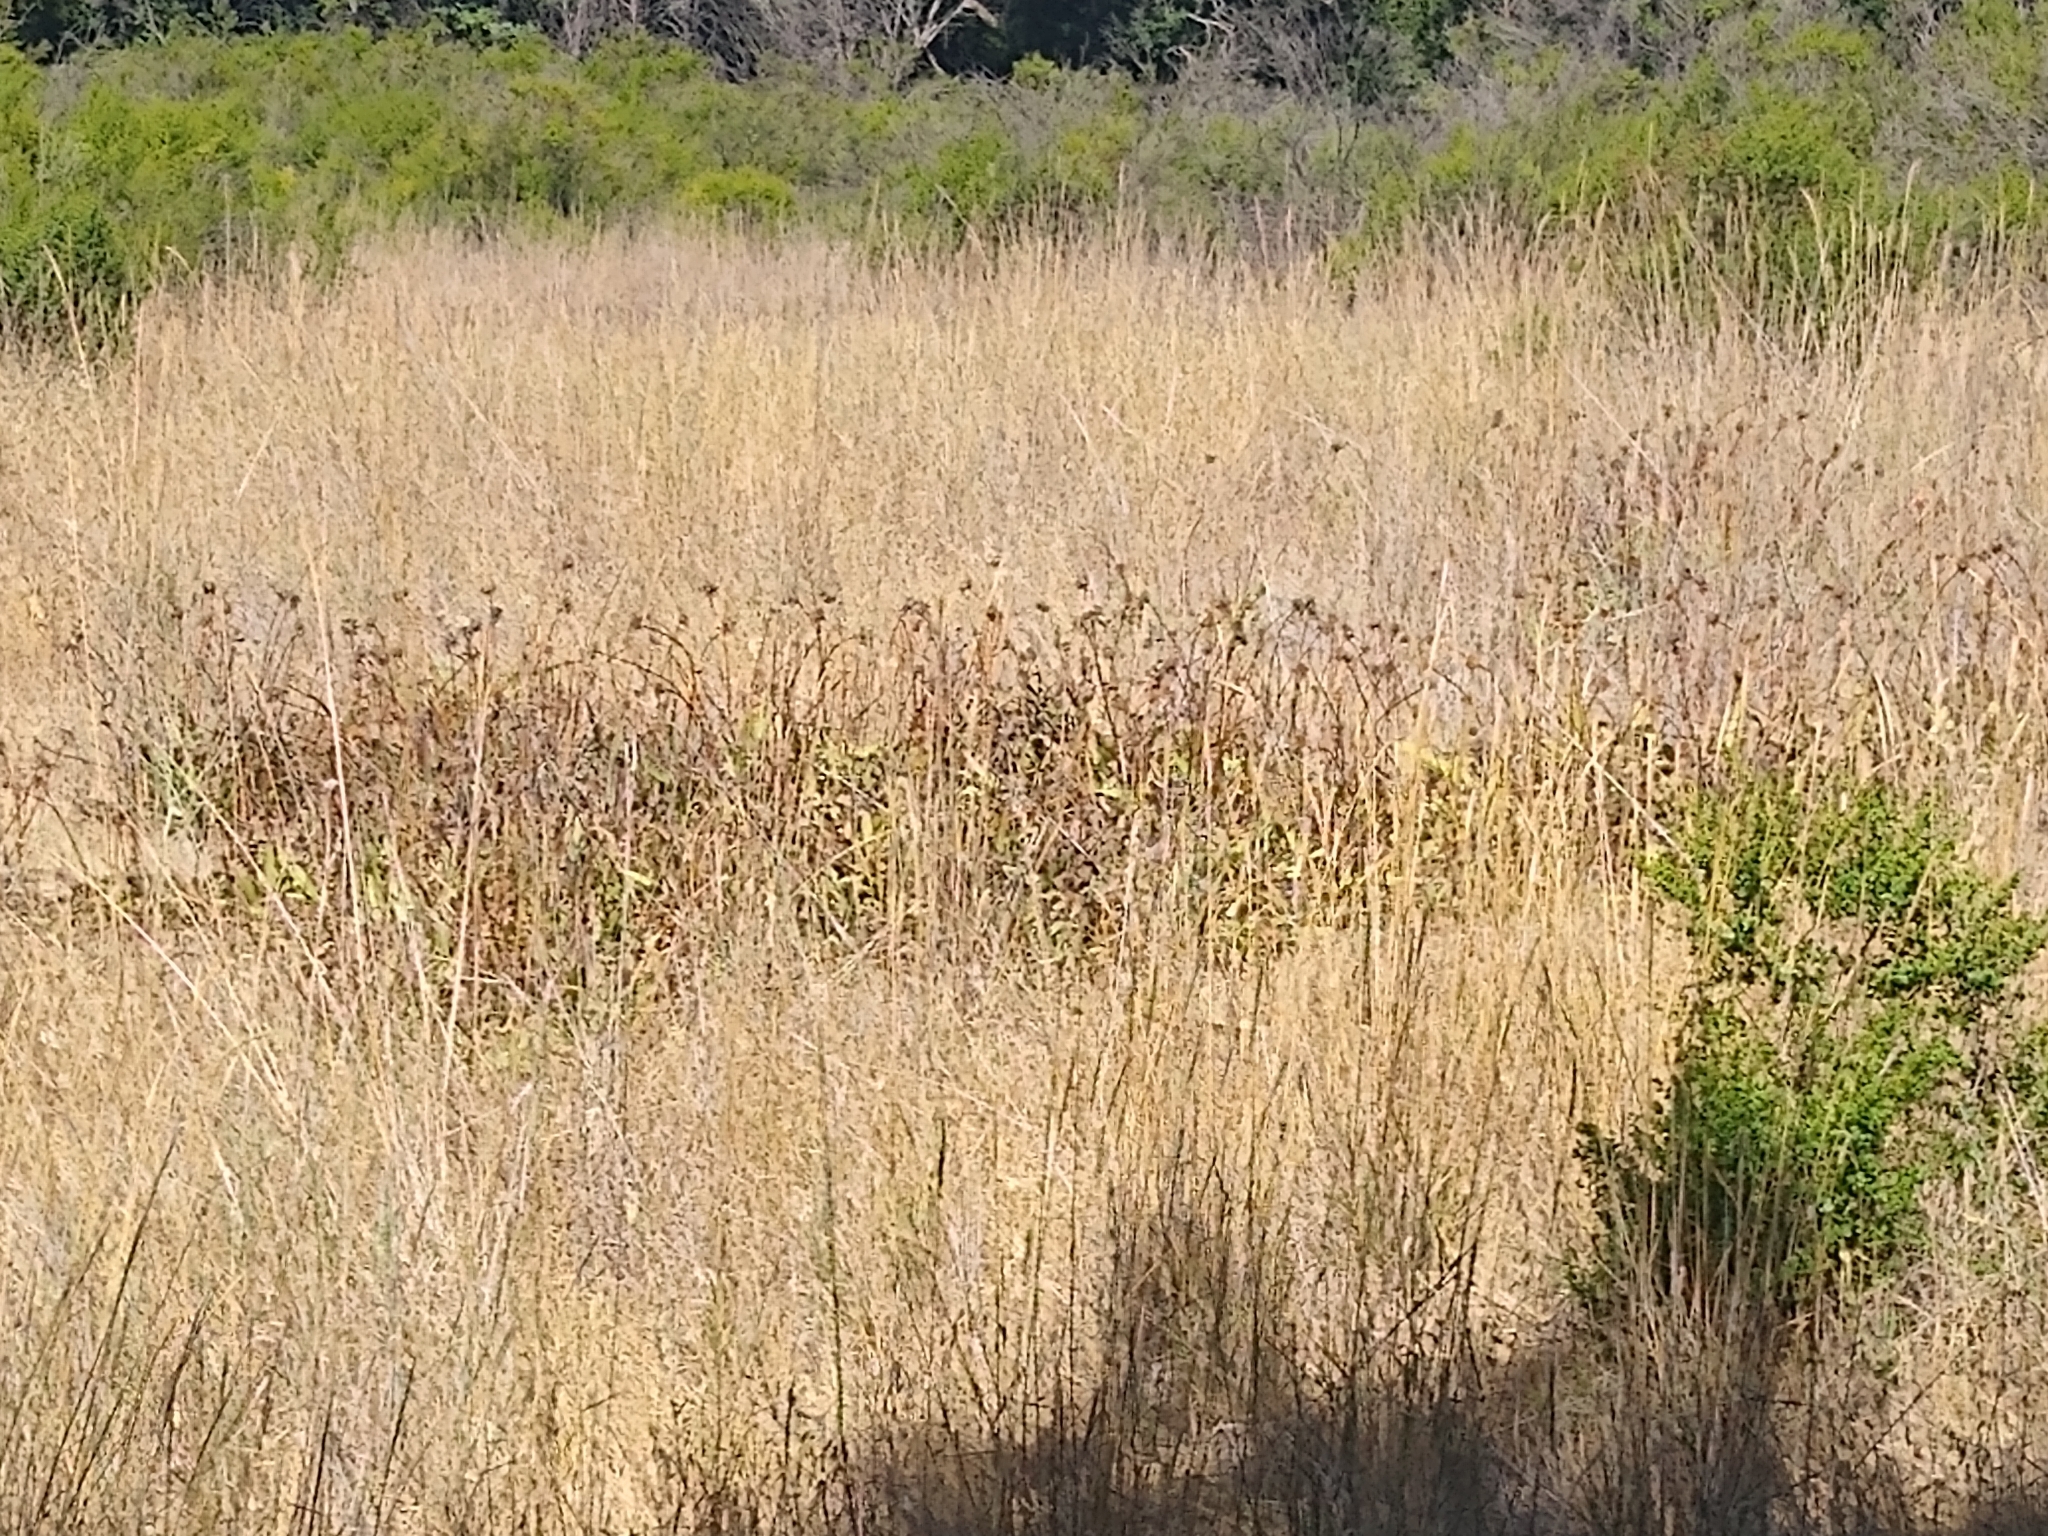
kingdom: Plantae
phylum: Tracheophyta
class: Magnoliopsida
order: Asterales
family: Asteraceae
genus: Wyethia
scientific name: Wyethia angustifolia
